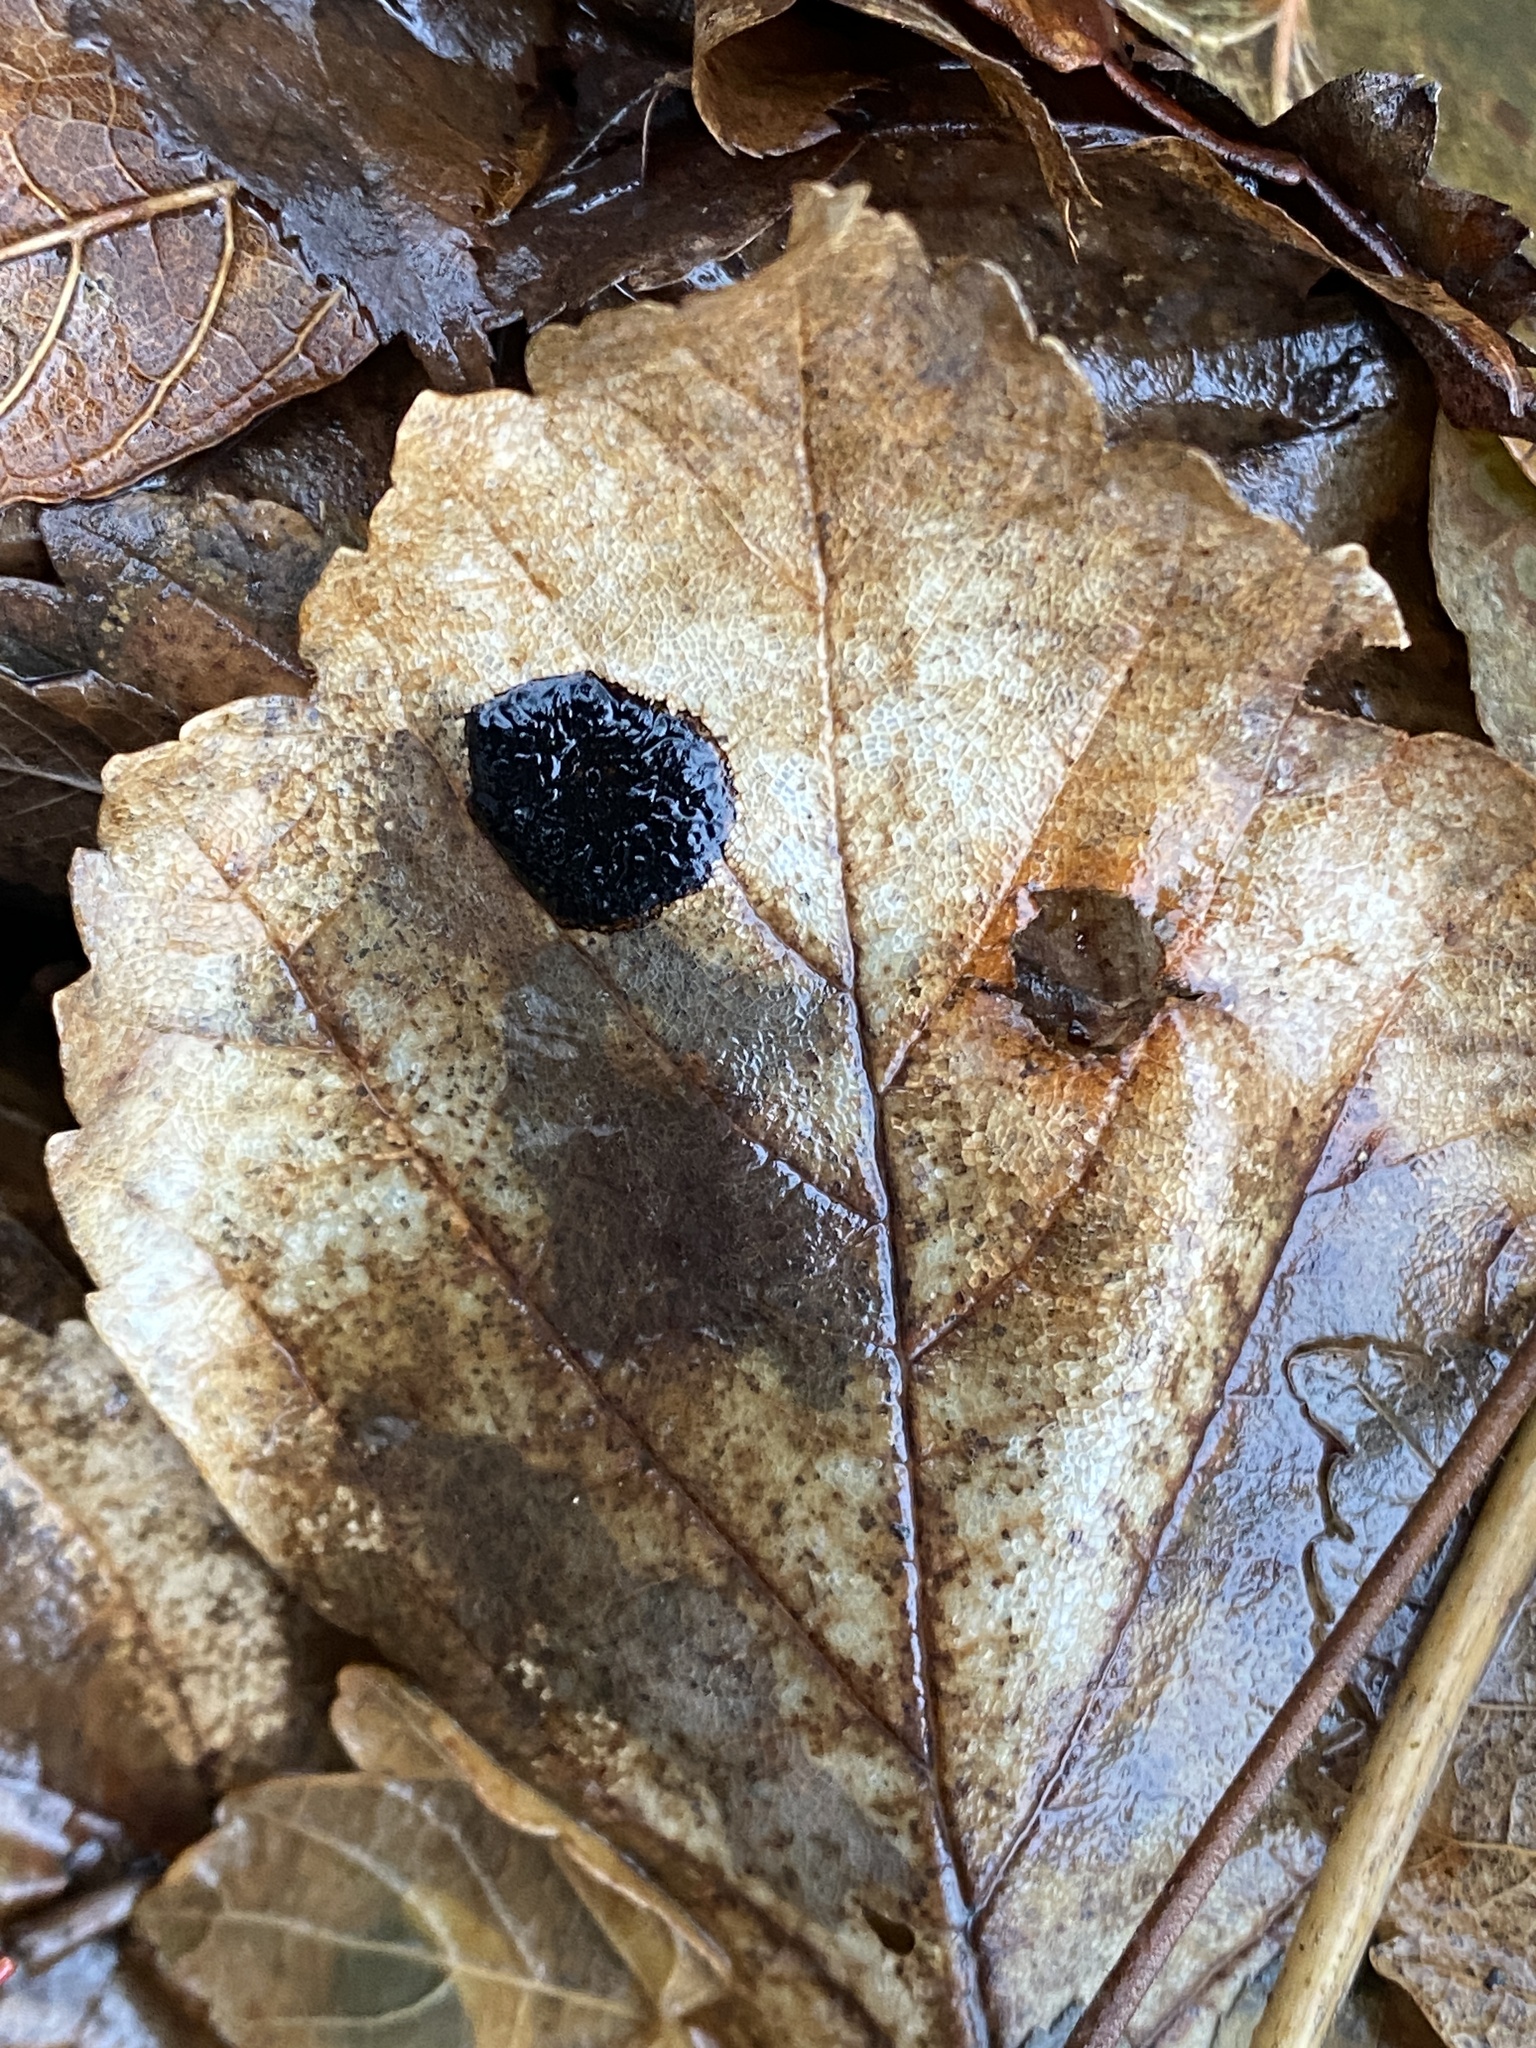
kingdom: Fungi
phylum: Ascomycota
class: Leotiomycetes
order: Rhytismatales
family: Rhytismataceae
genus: Rhytisma
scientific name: Rhytisma acerinum
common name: European tar spot
